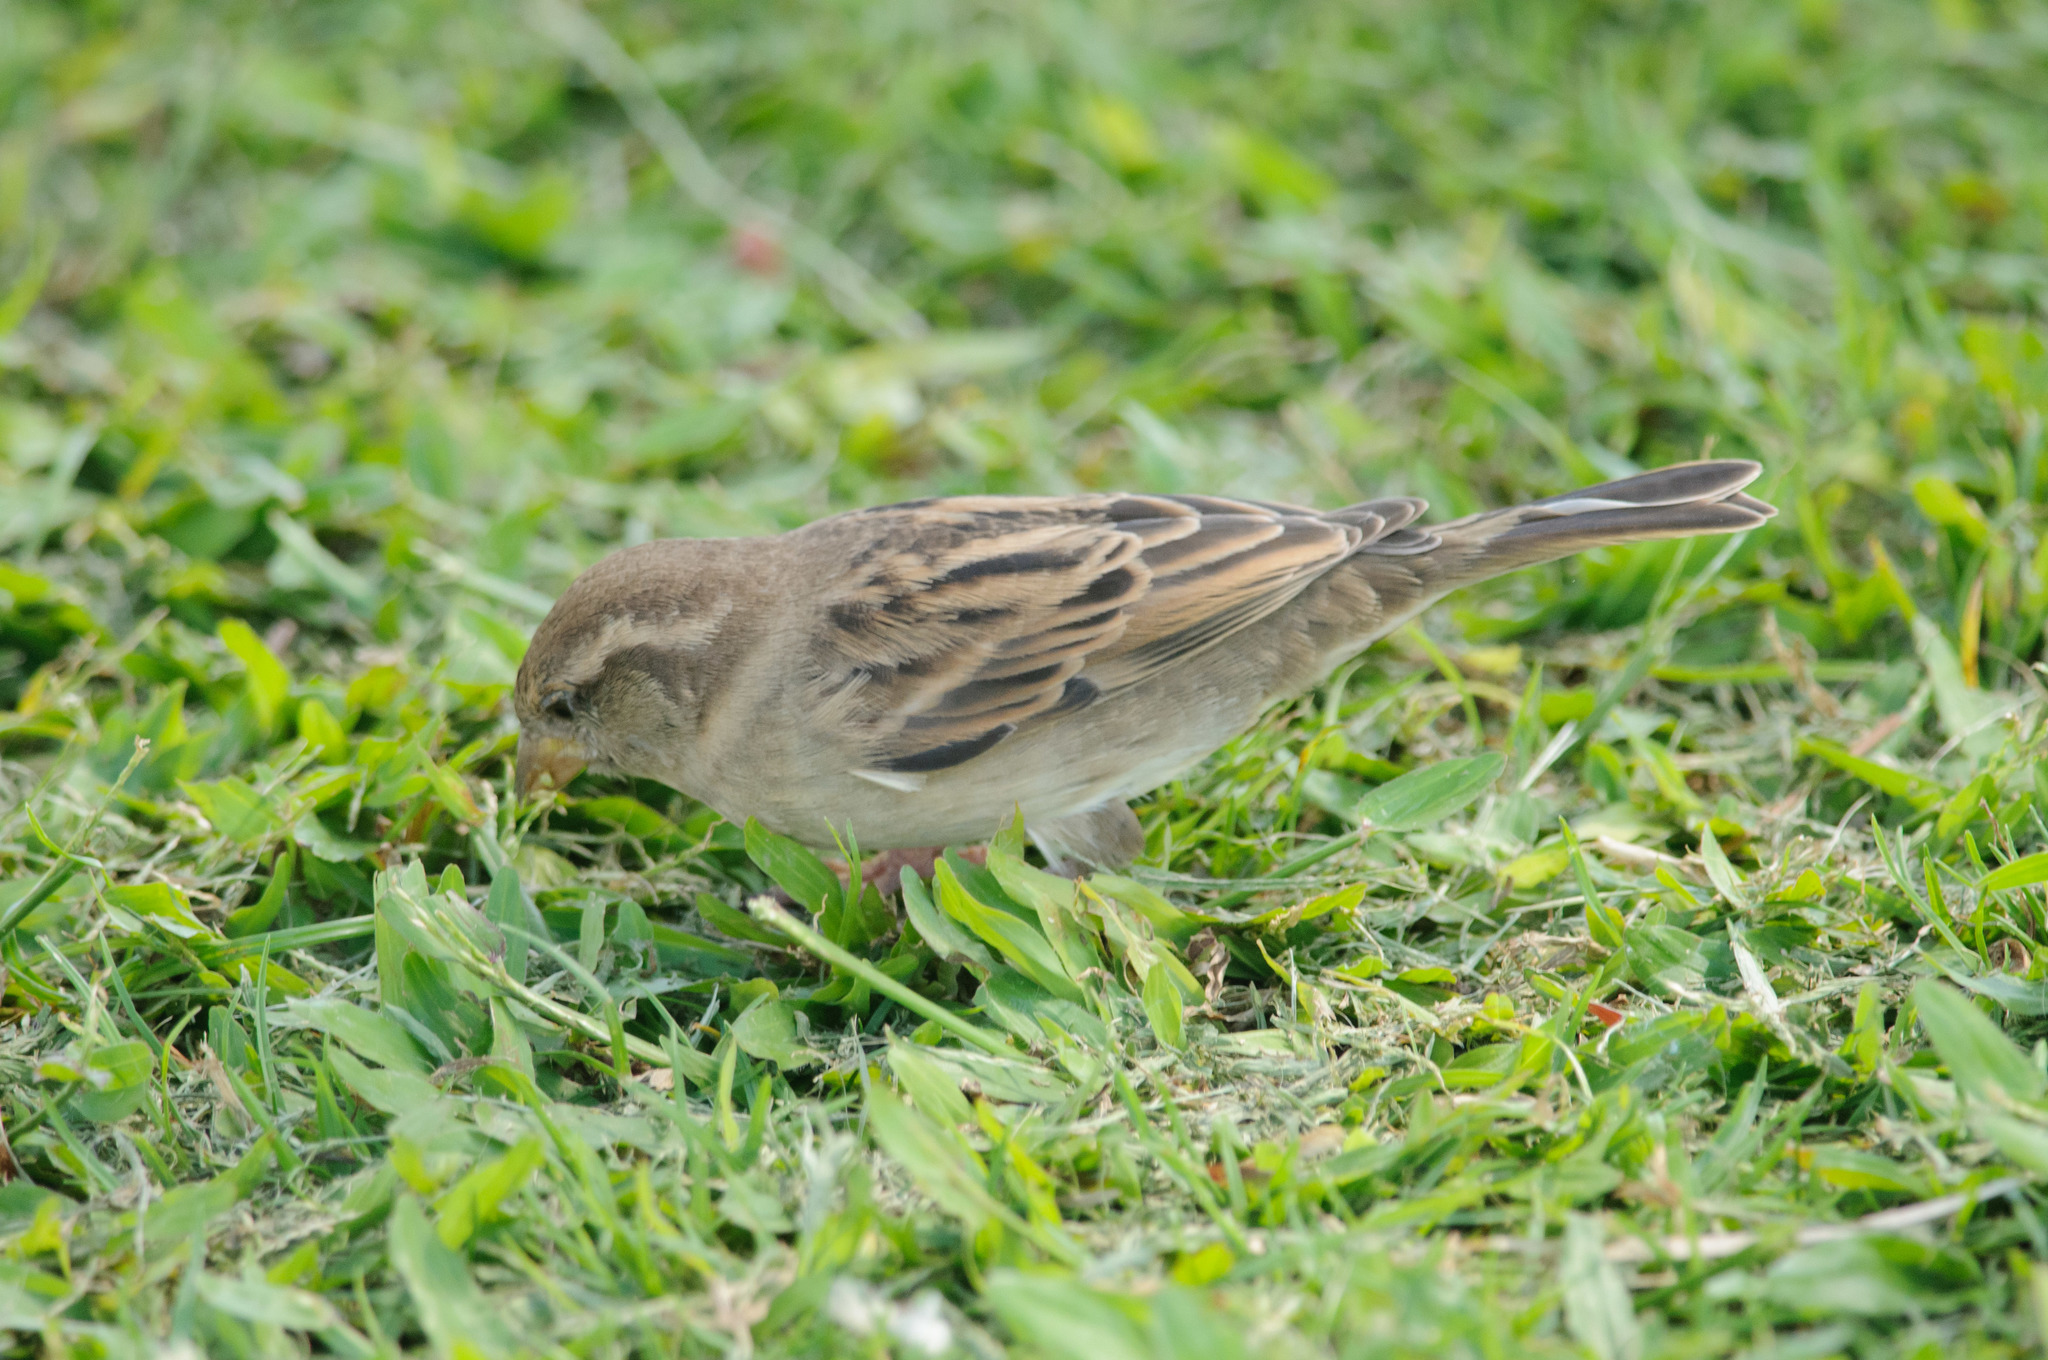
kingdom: Animalia
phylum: Chordata
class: Aves
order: Passeriformes
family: Passeridae
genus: Passer
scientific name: Passer domesticus
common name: House sparrow
